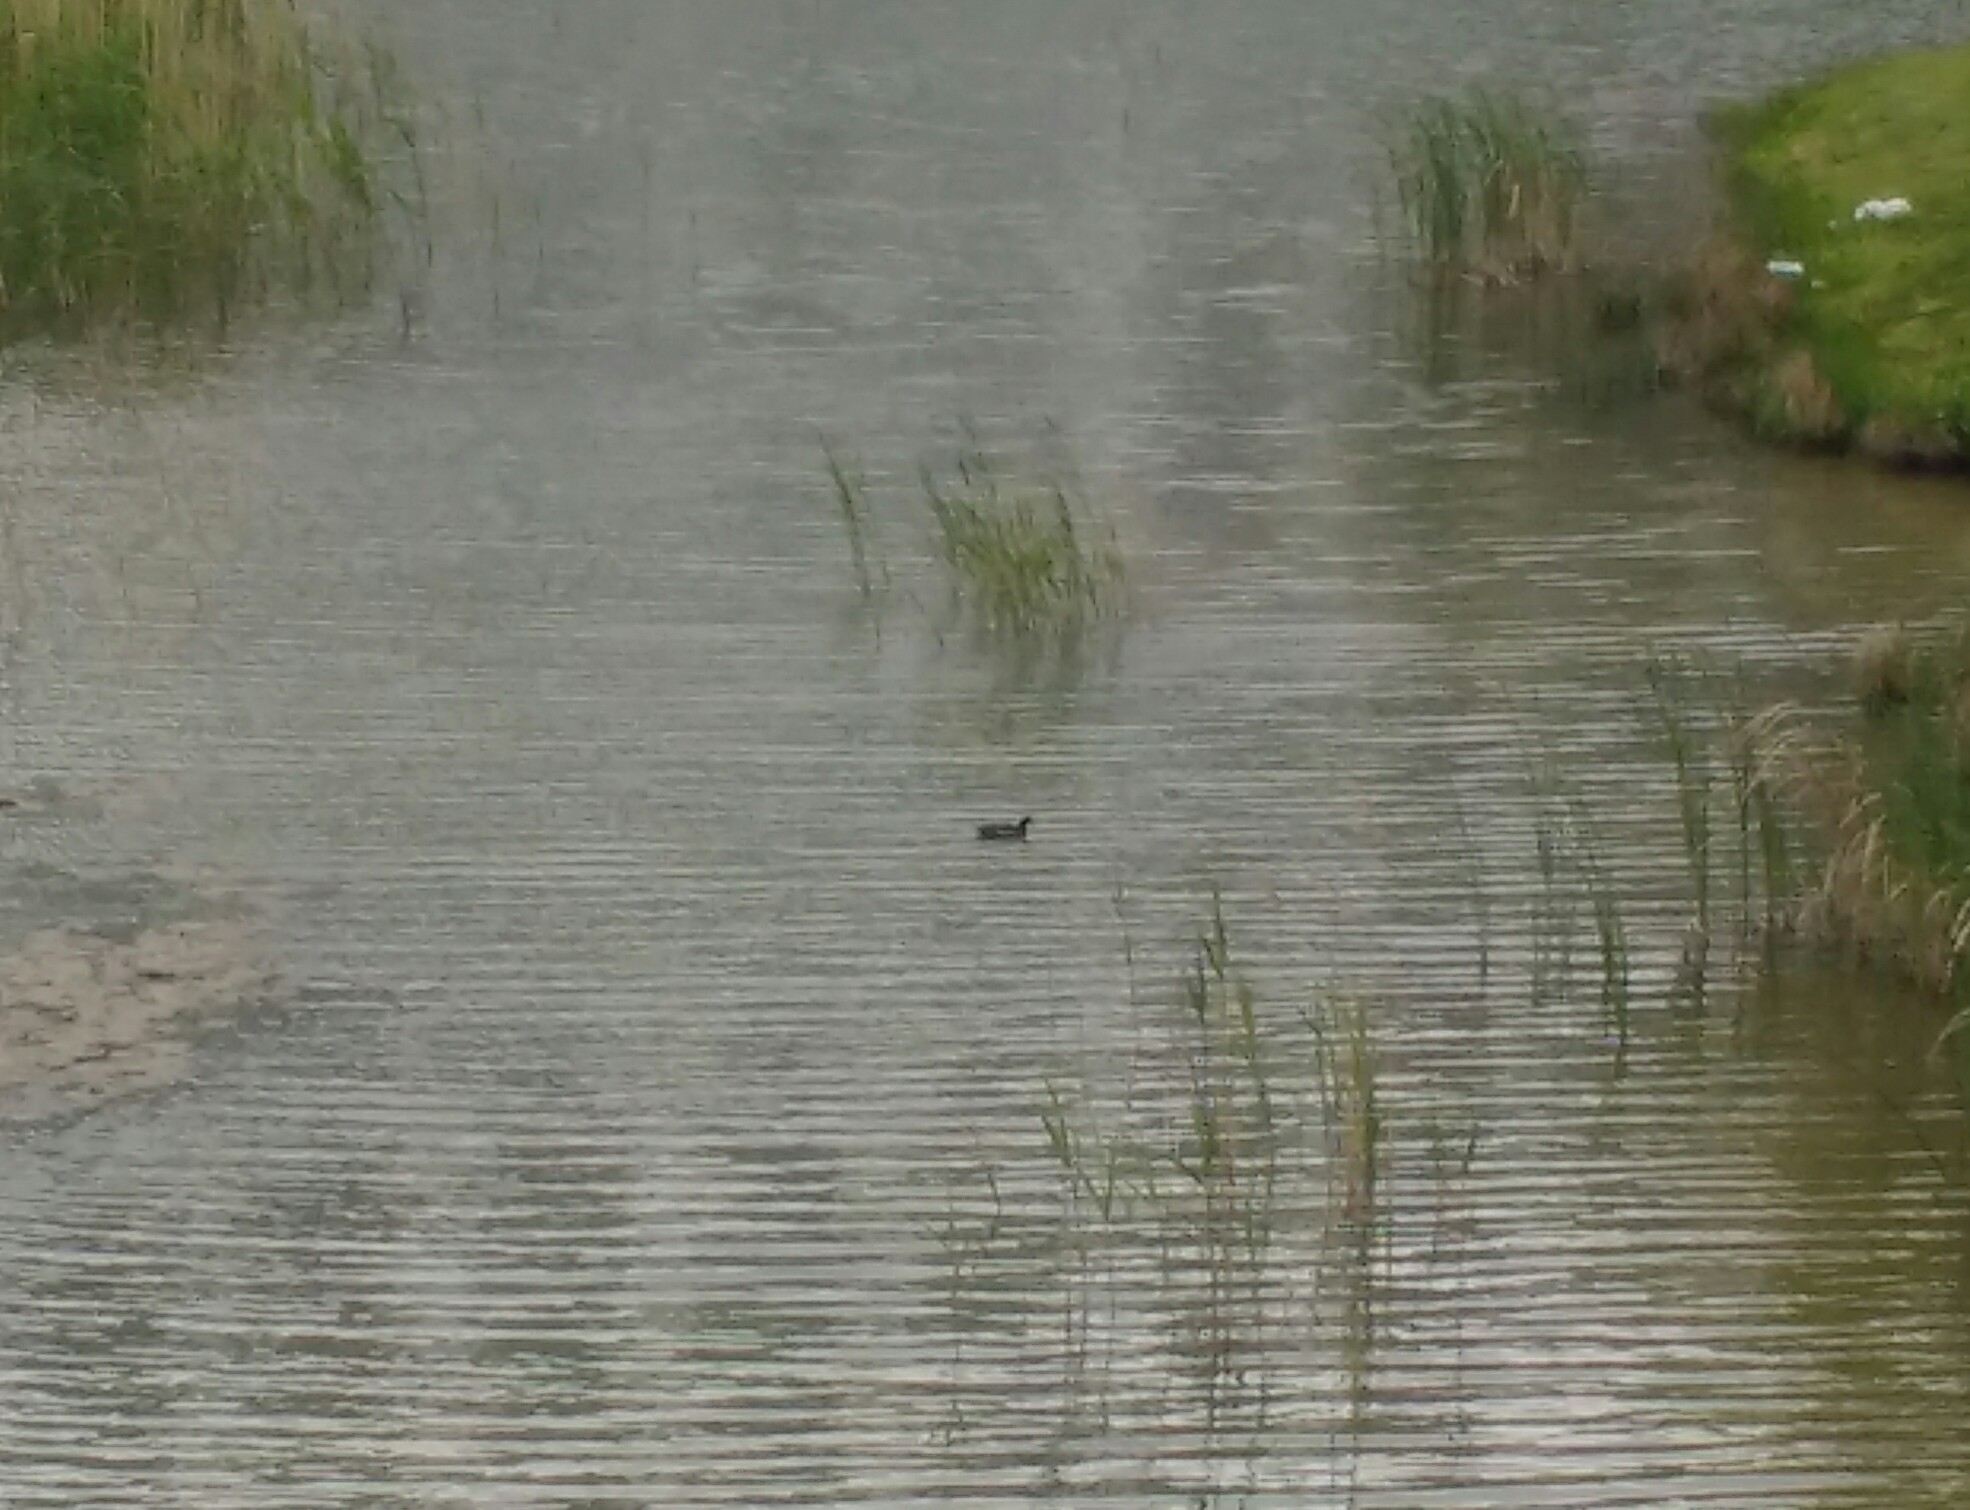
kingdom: Animalia
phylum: Chordata
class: Aves
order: Gruiformes
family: Rallidae
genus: Gallinula
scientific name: Gallinula chloropus
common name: Common moorhen
